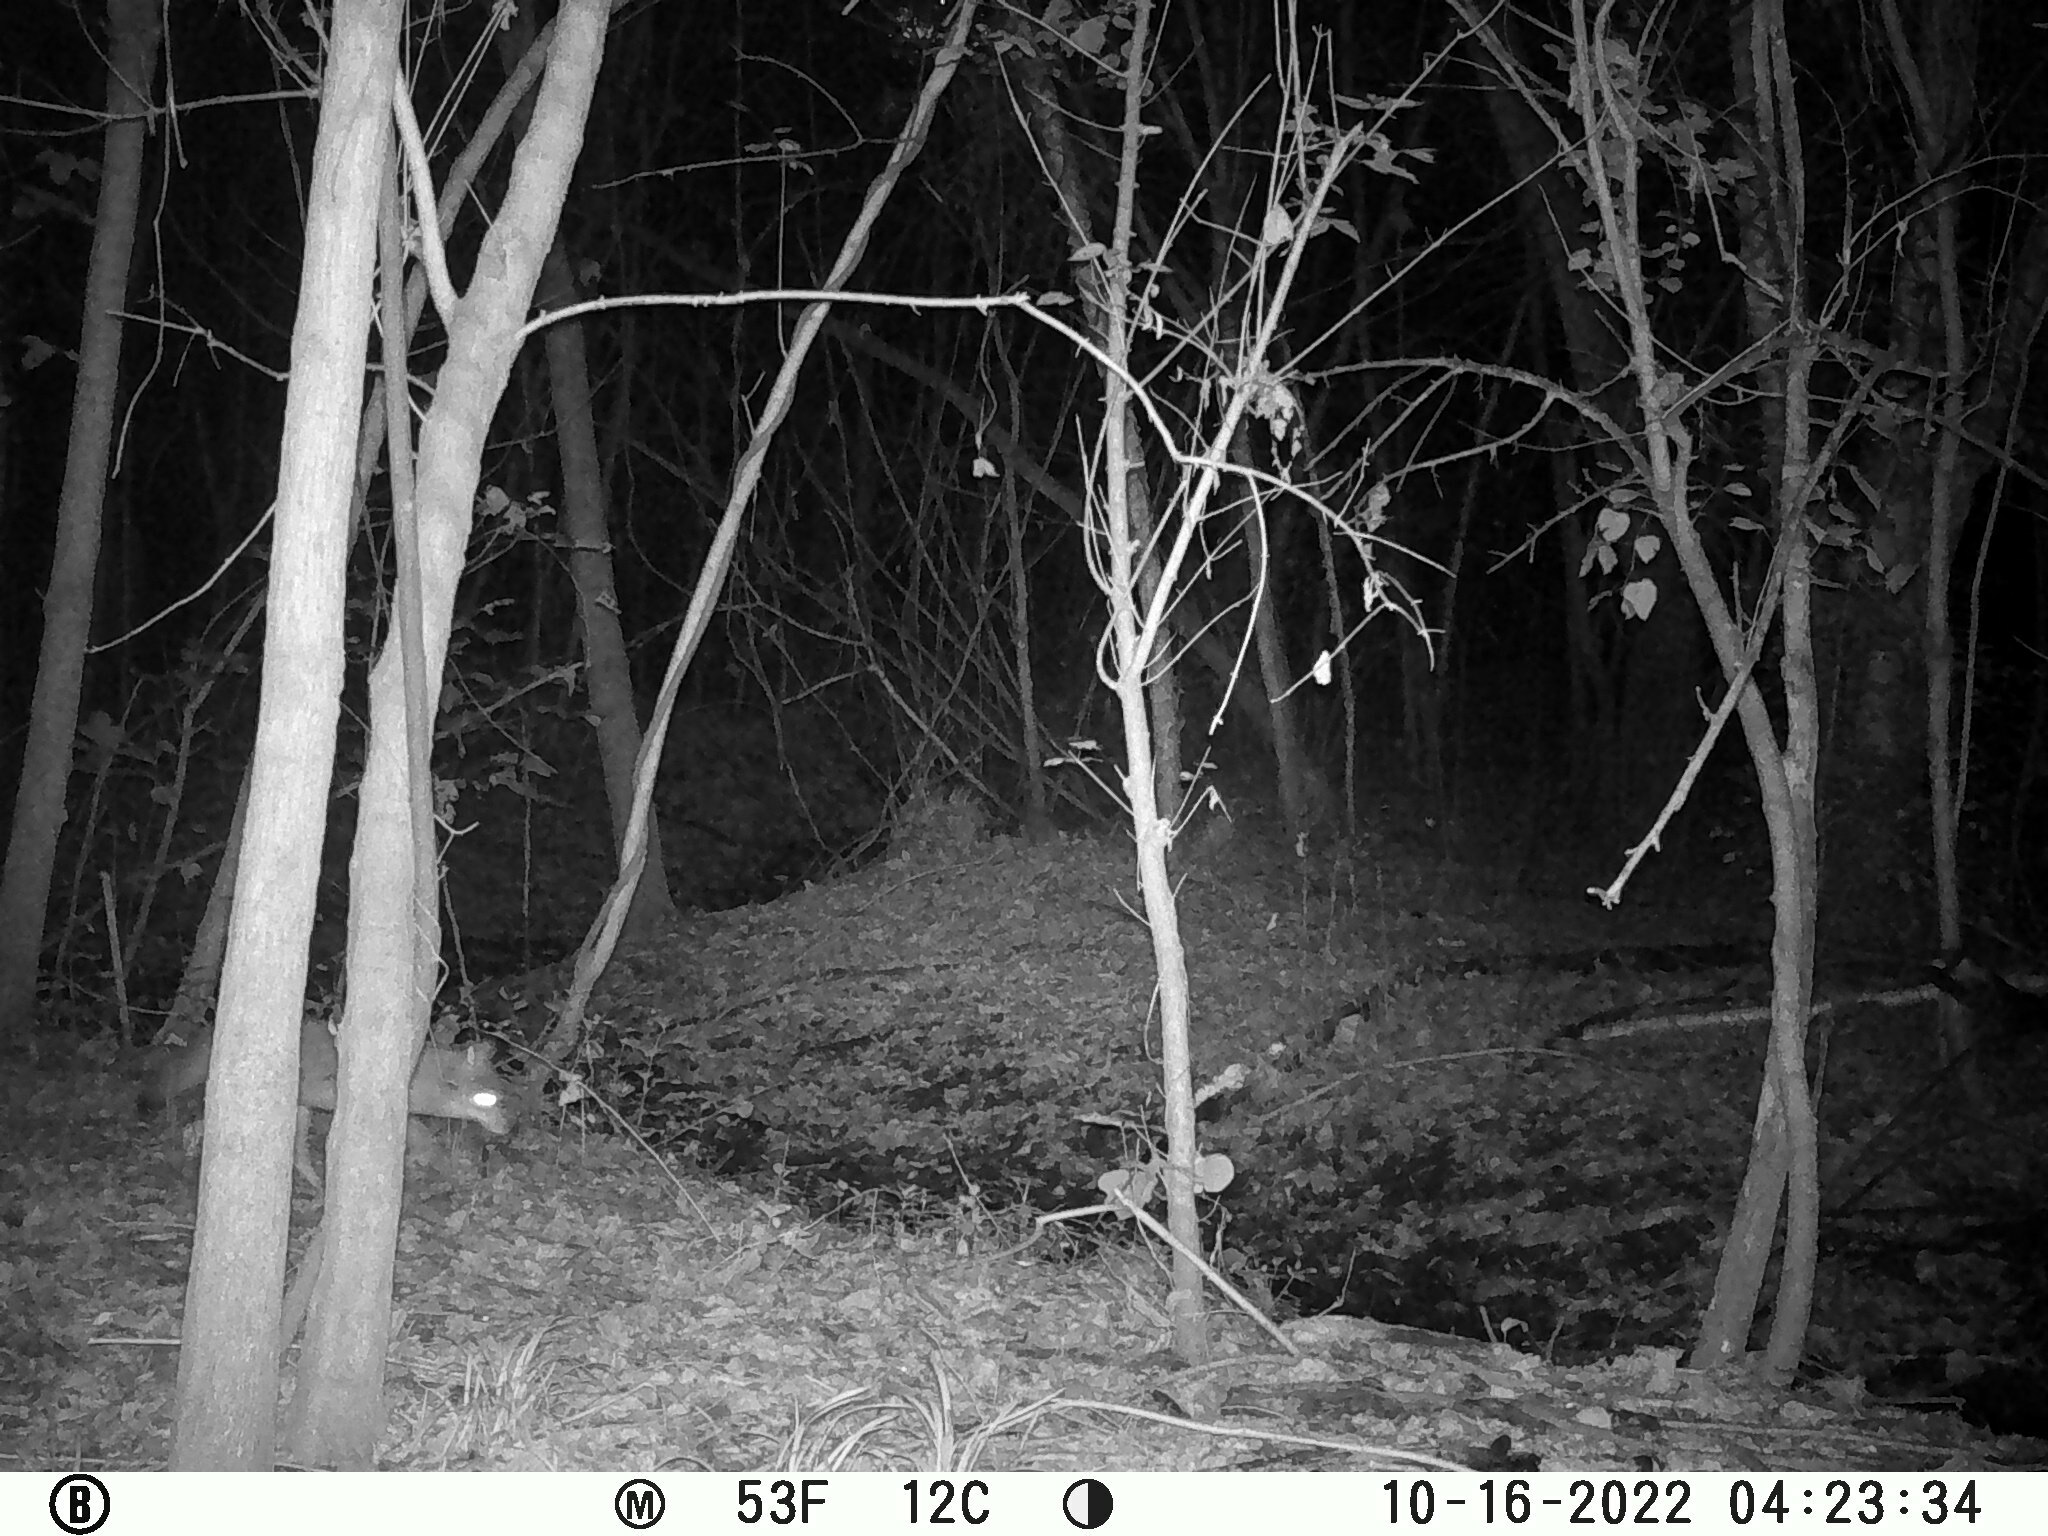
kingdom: Animalia
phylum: Chordata
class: Mammalia
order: Carnivora
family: Canidae
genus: Canis
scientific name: Canis latrans
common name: Coyote
